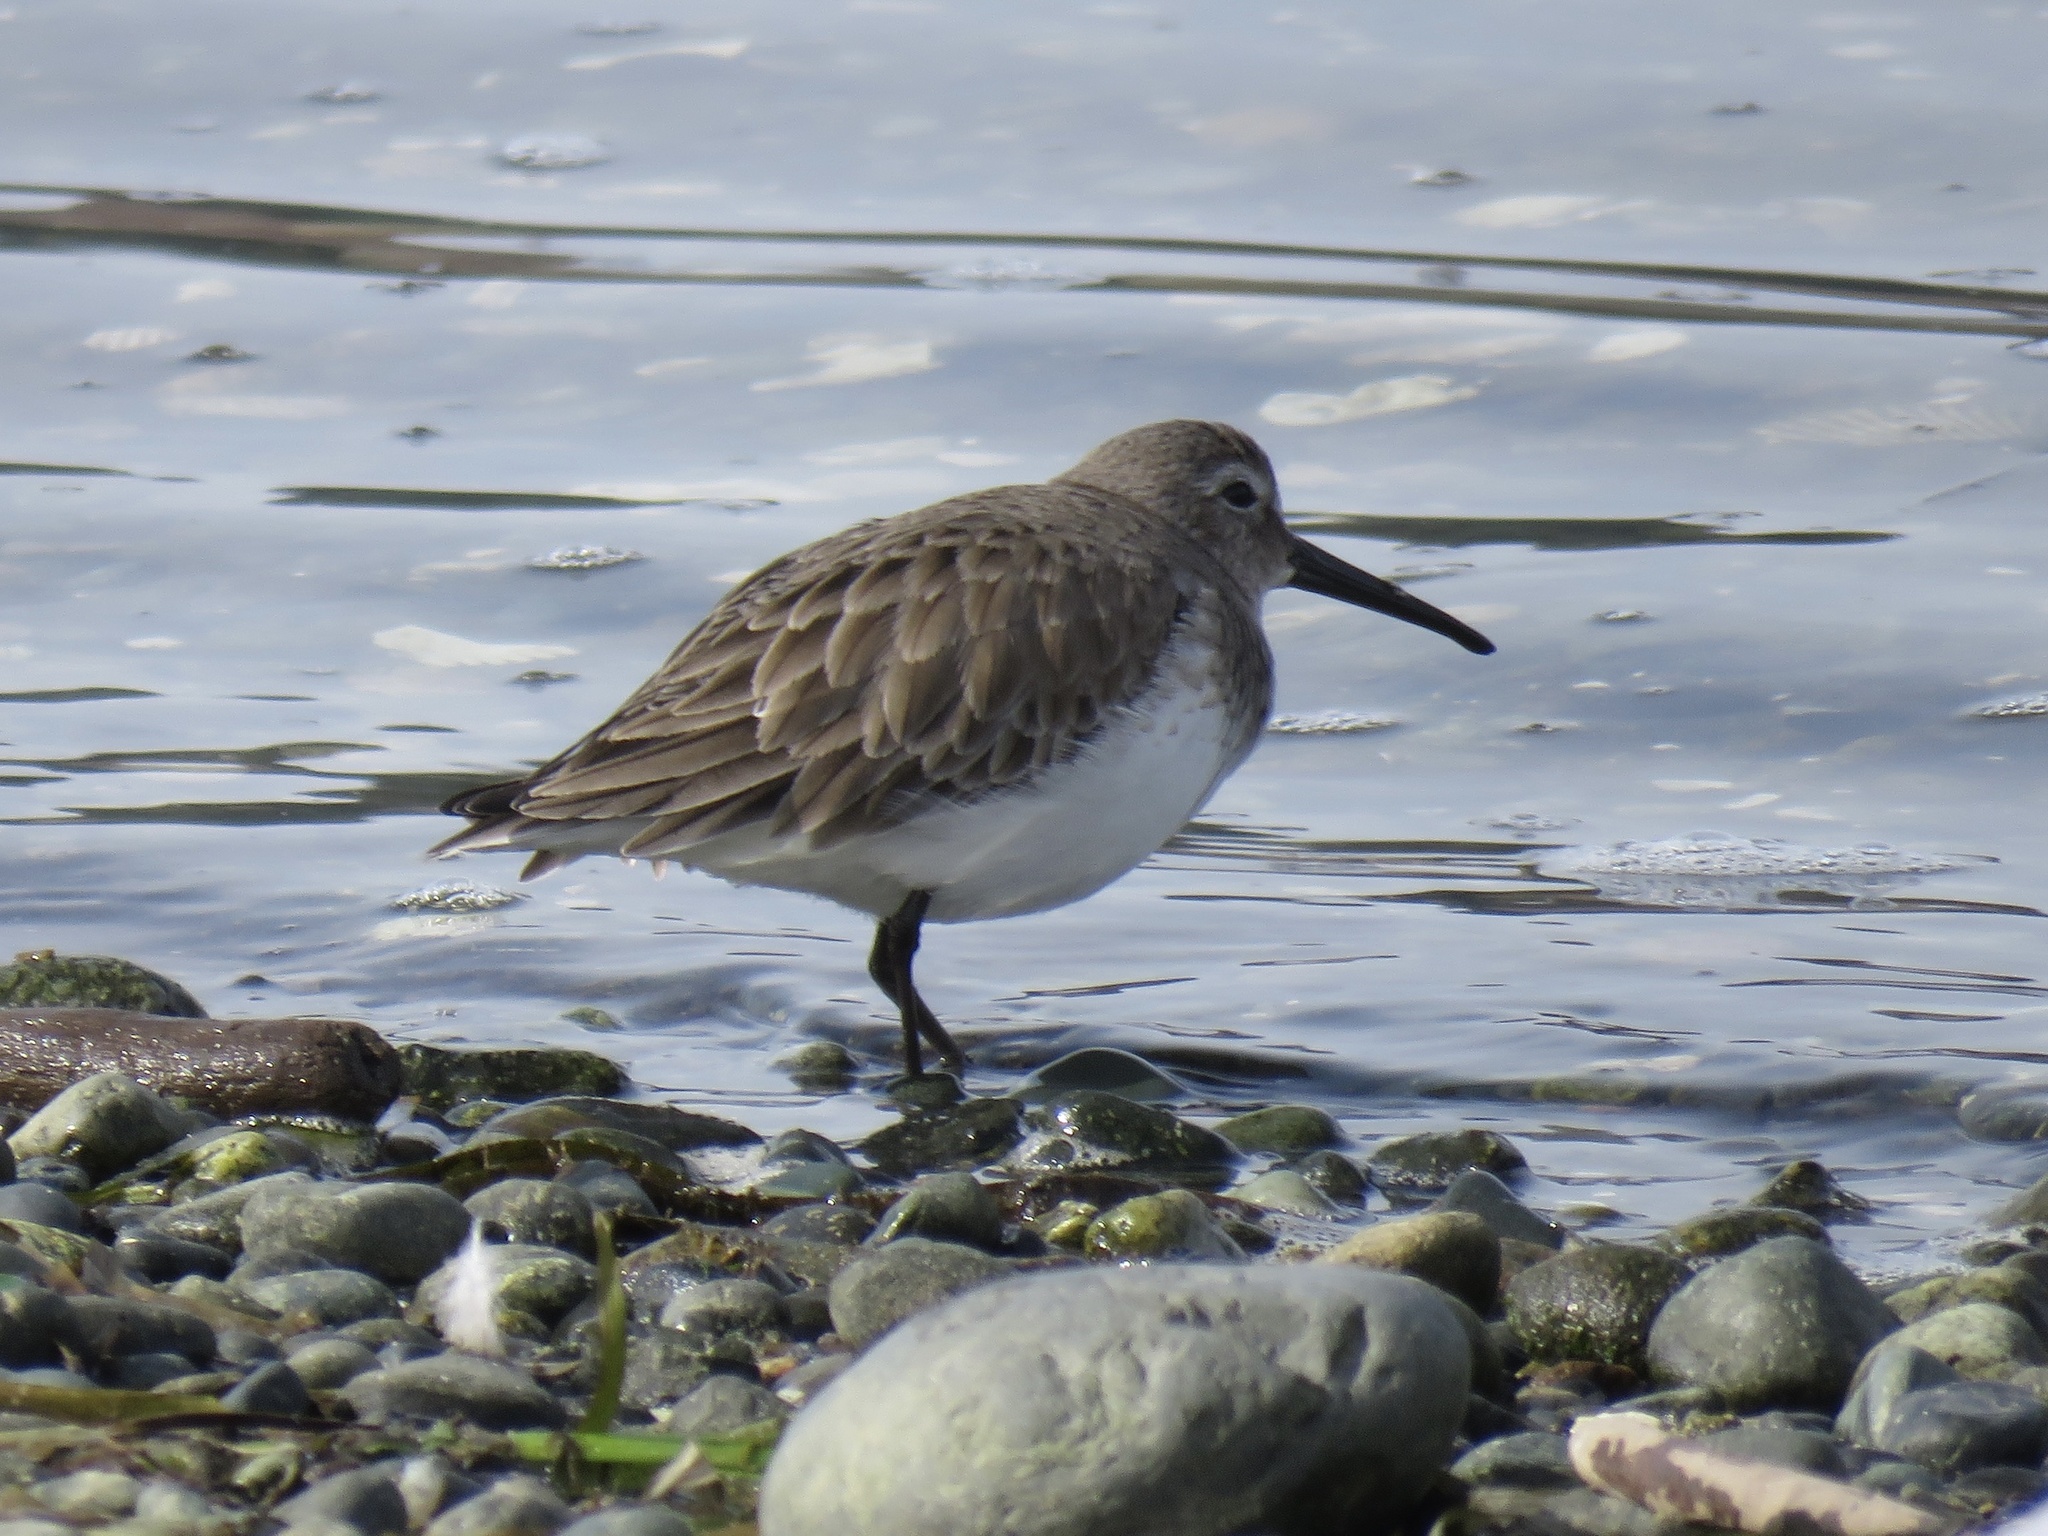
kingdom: Animalia
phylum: Chordata
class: Aves
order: Charadriiformes
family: Scolopacidae
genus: Calidris
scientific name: Calidris alpina
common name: Dunlin
